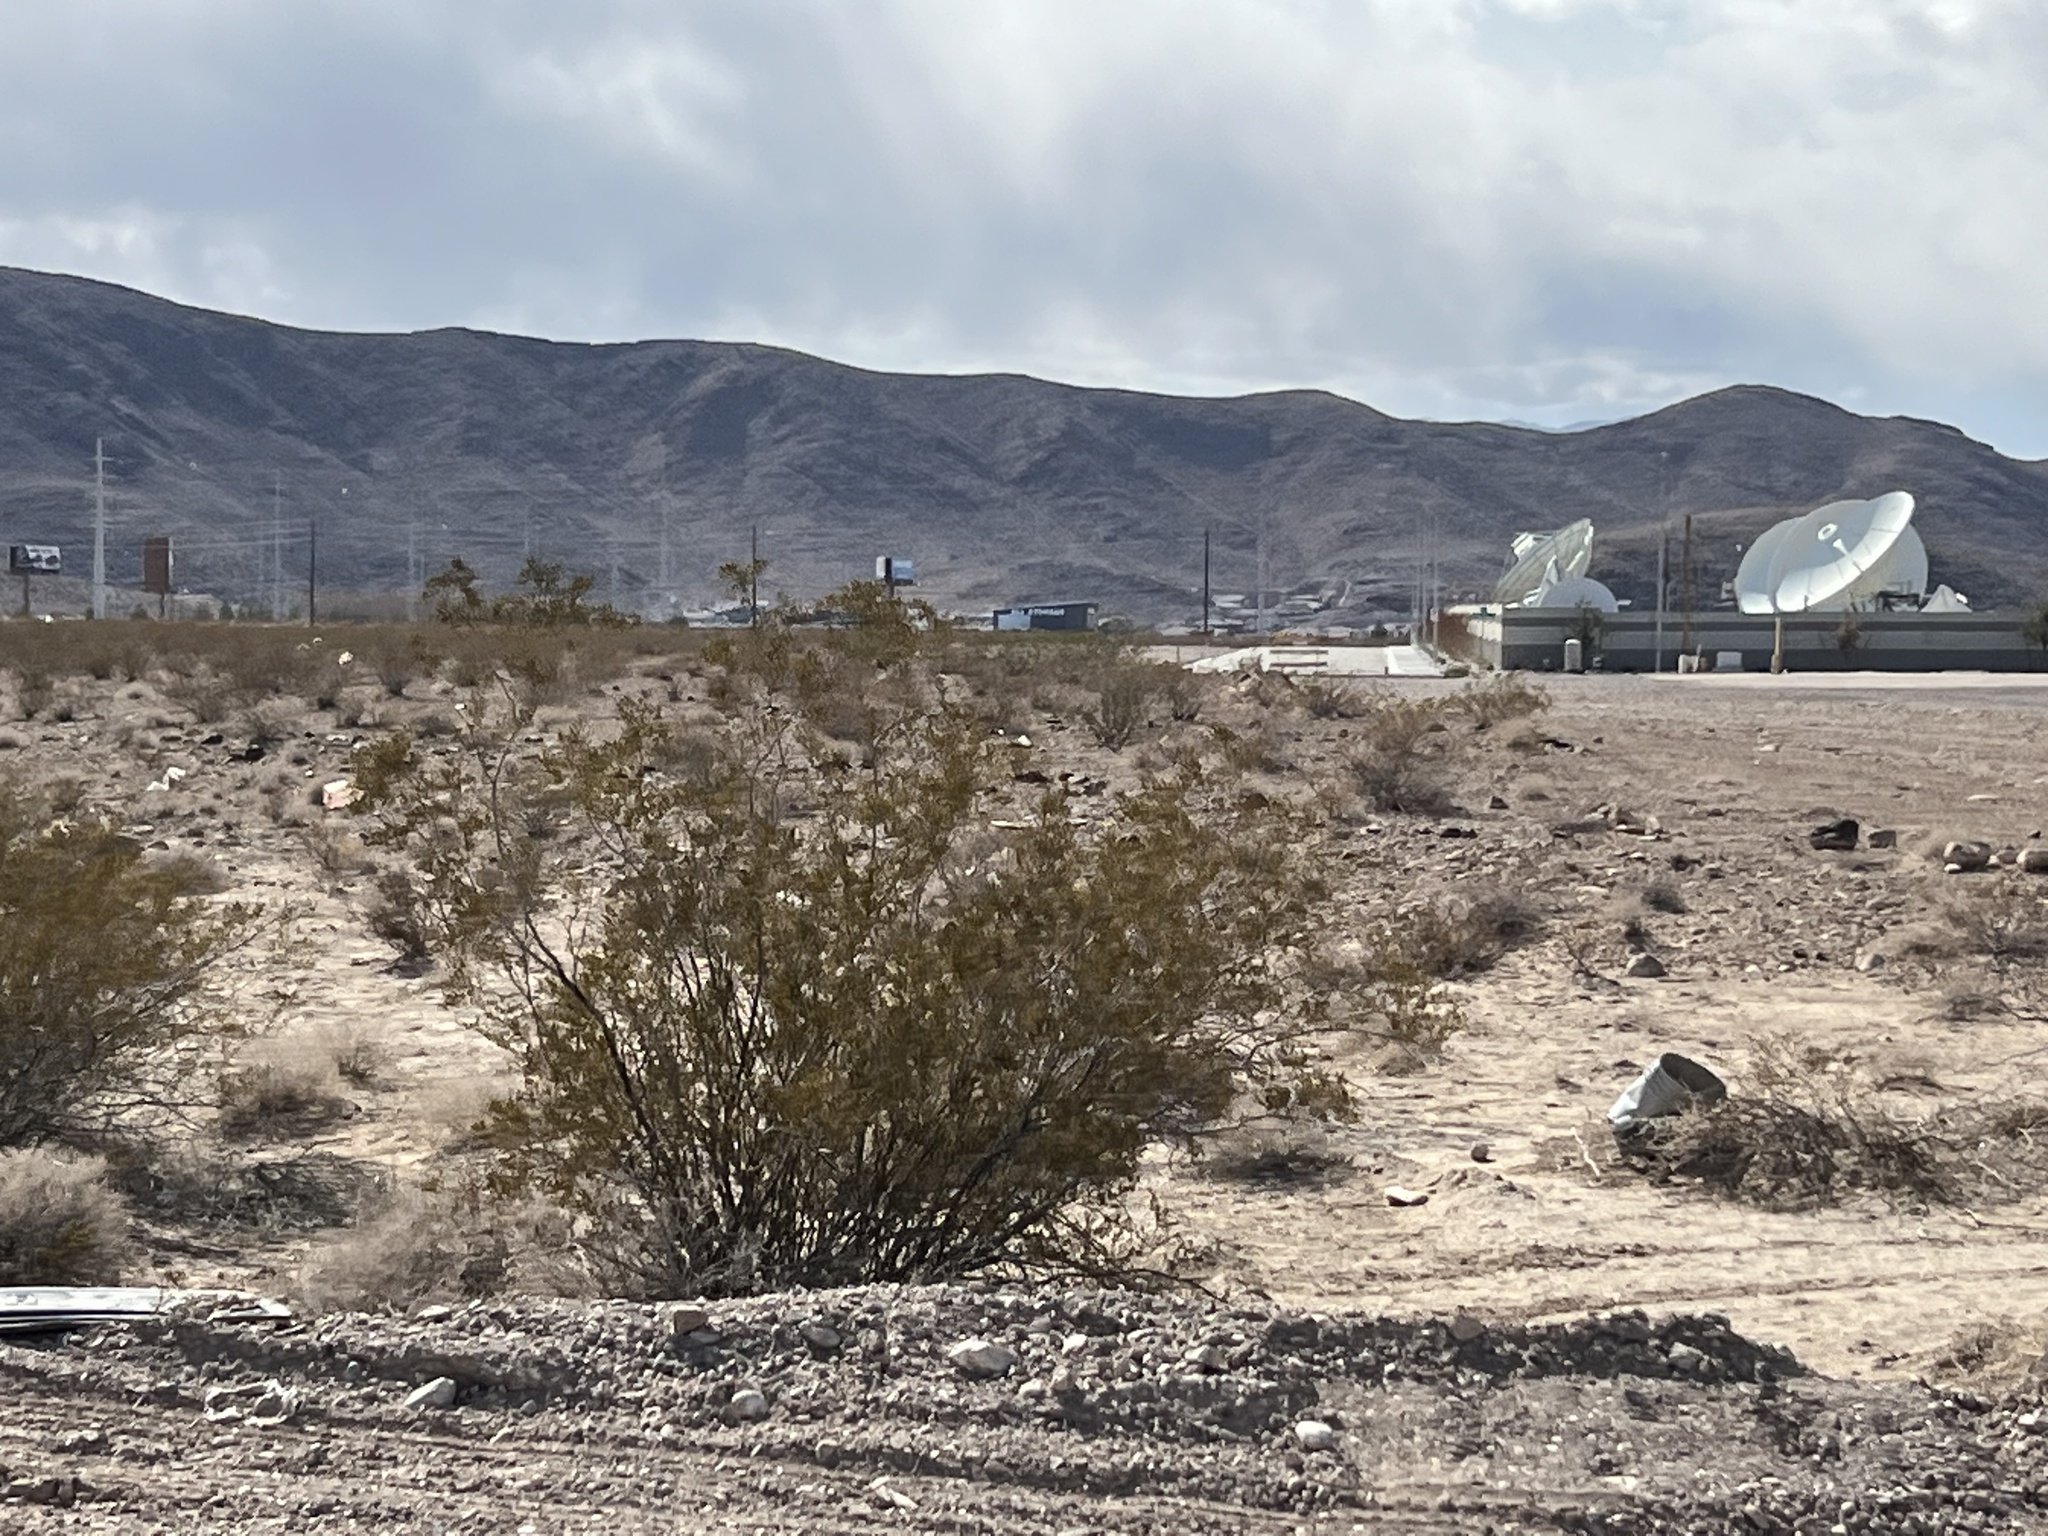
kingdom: Plantae
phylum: Tracheophyta
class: Magnoliopsida
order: Zygophyllales
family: Zygophyllaceae
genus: Larrea
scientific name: Larrea tridentata
